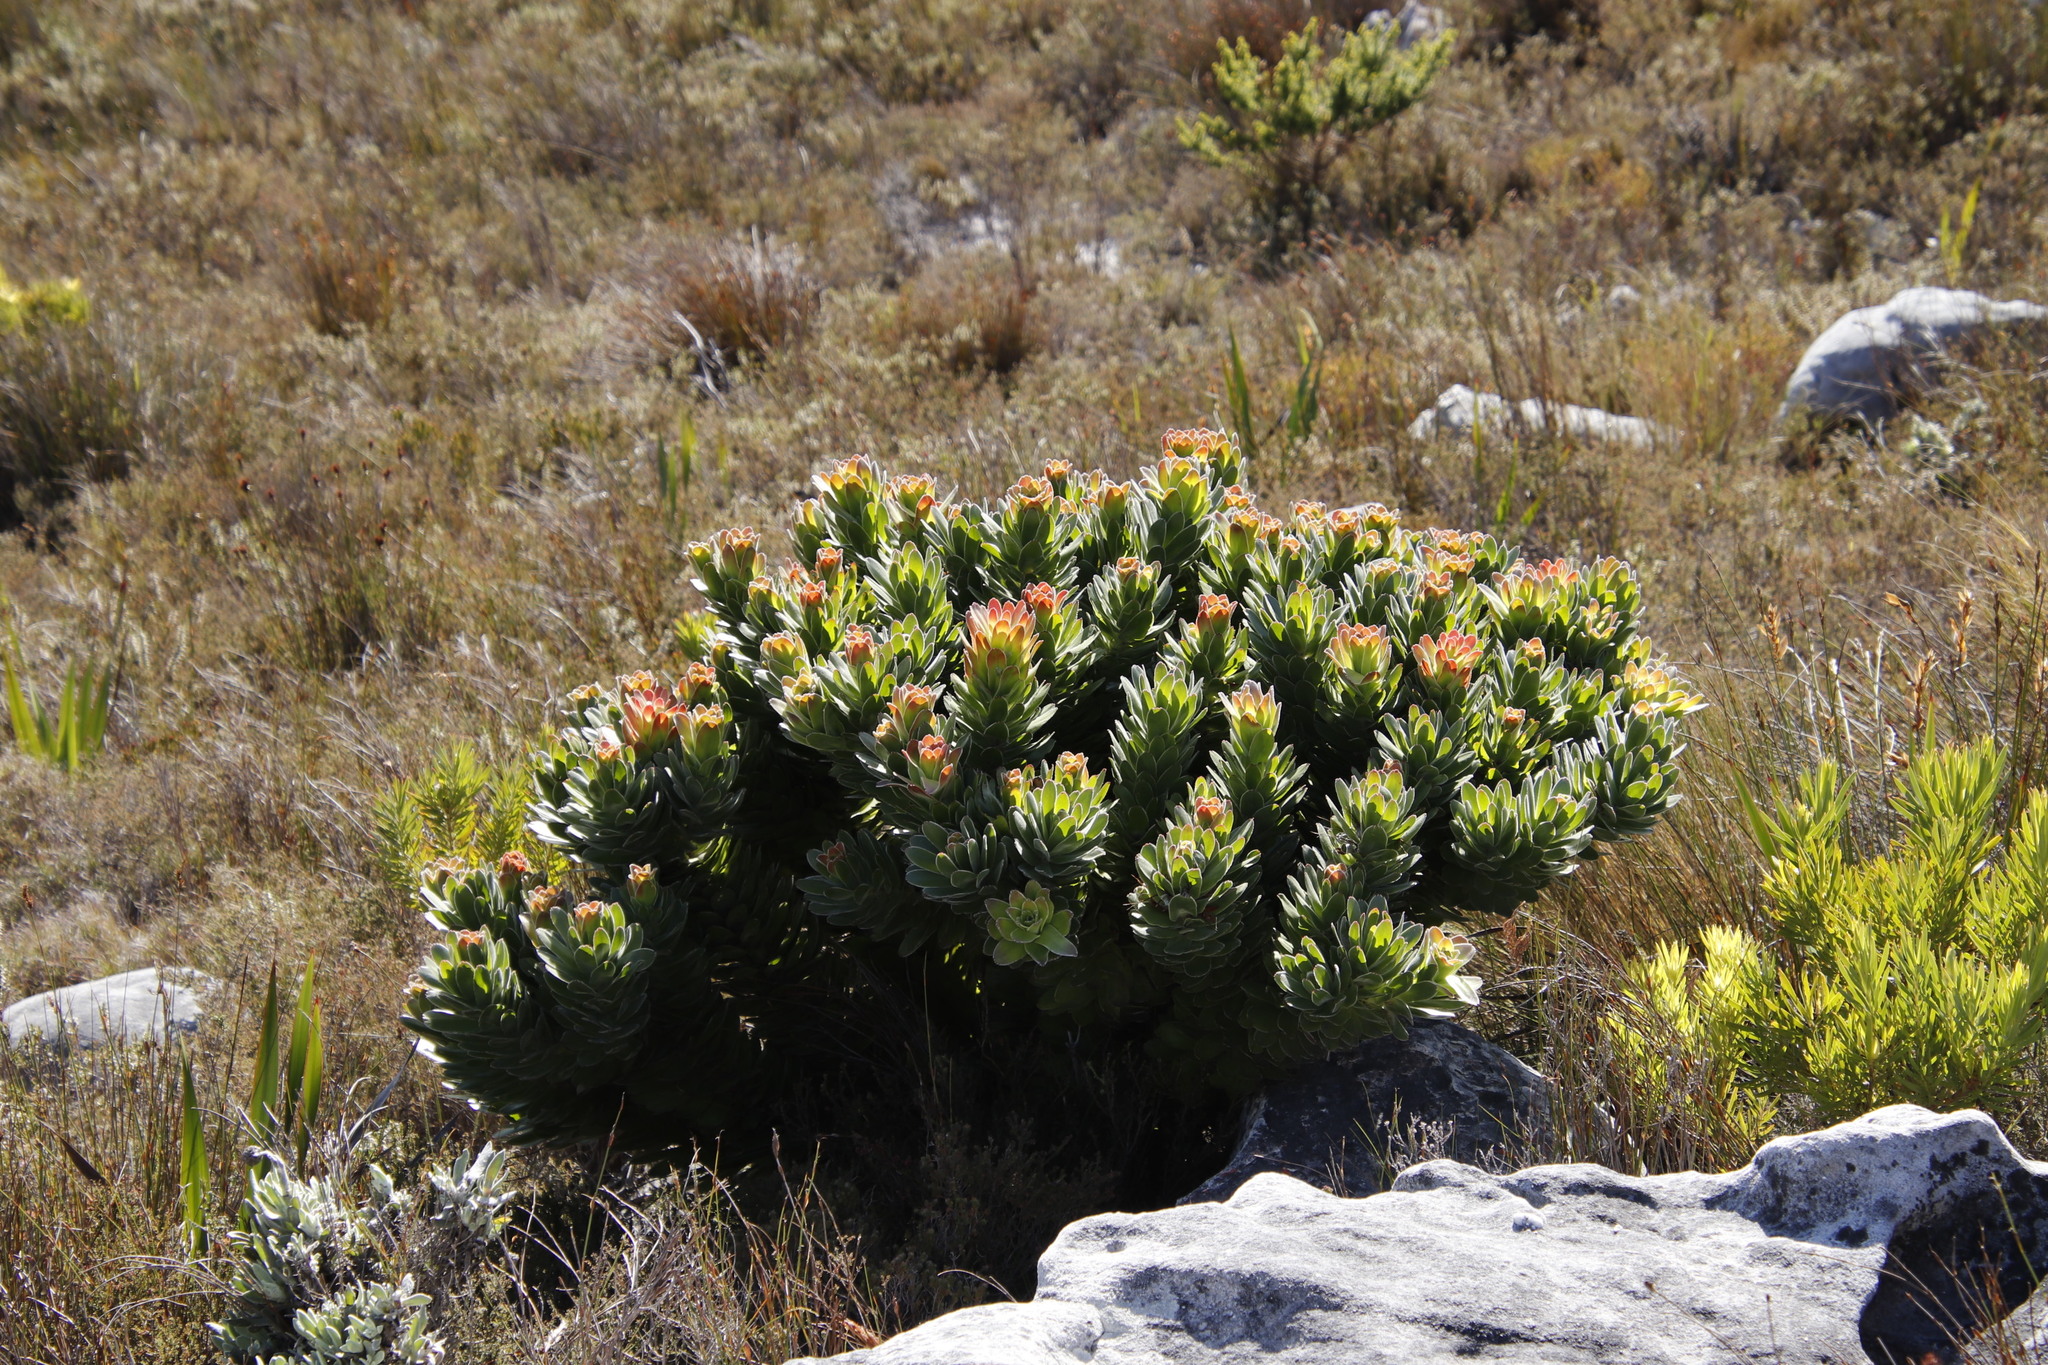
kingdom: Plantae
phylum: Tracheophyta
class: Magnoliopsida
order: Proteales
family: Proteaceae
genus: Mimetes
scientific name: Mimetes fimbriifolius
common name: Fringed bottlebrush
